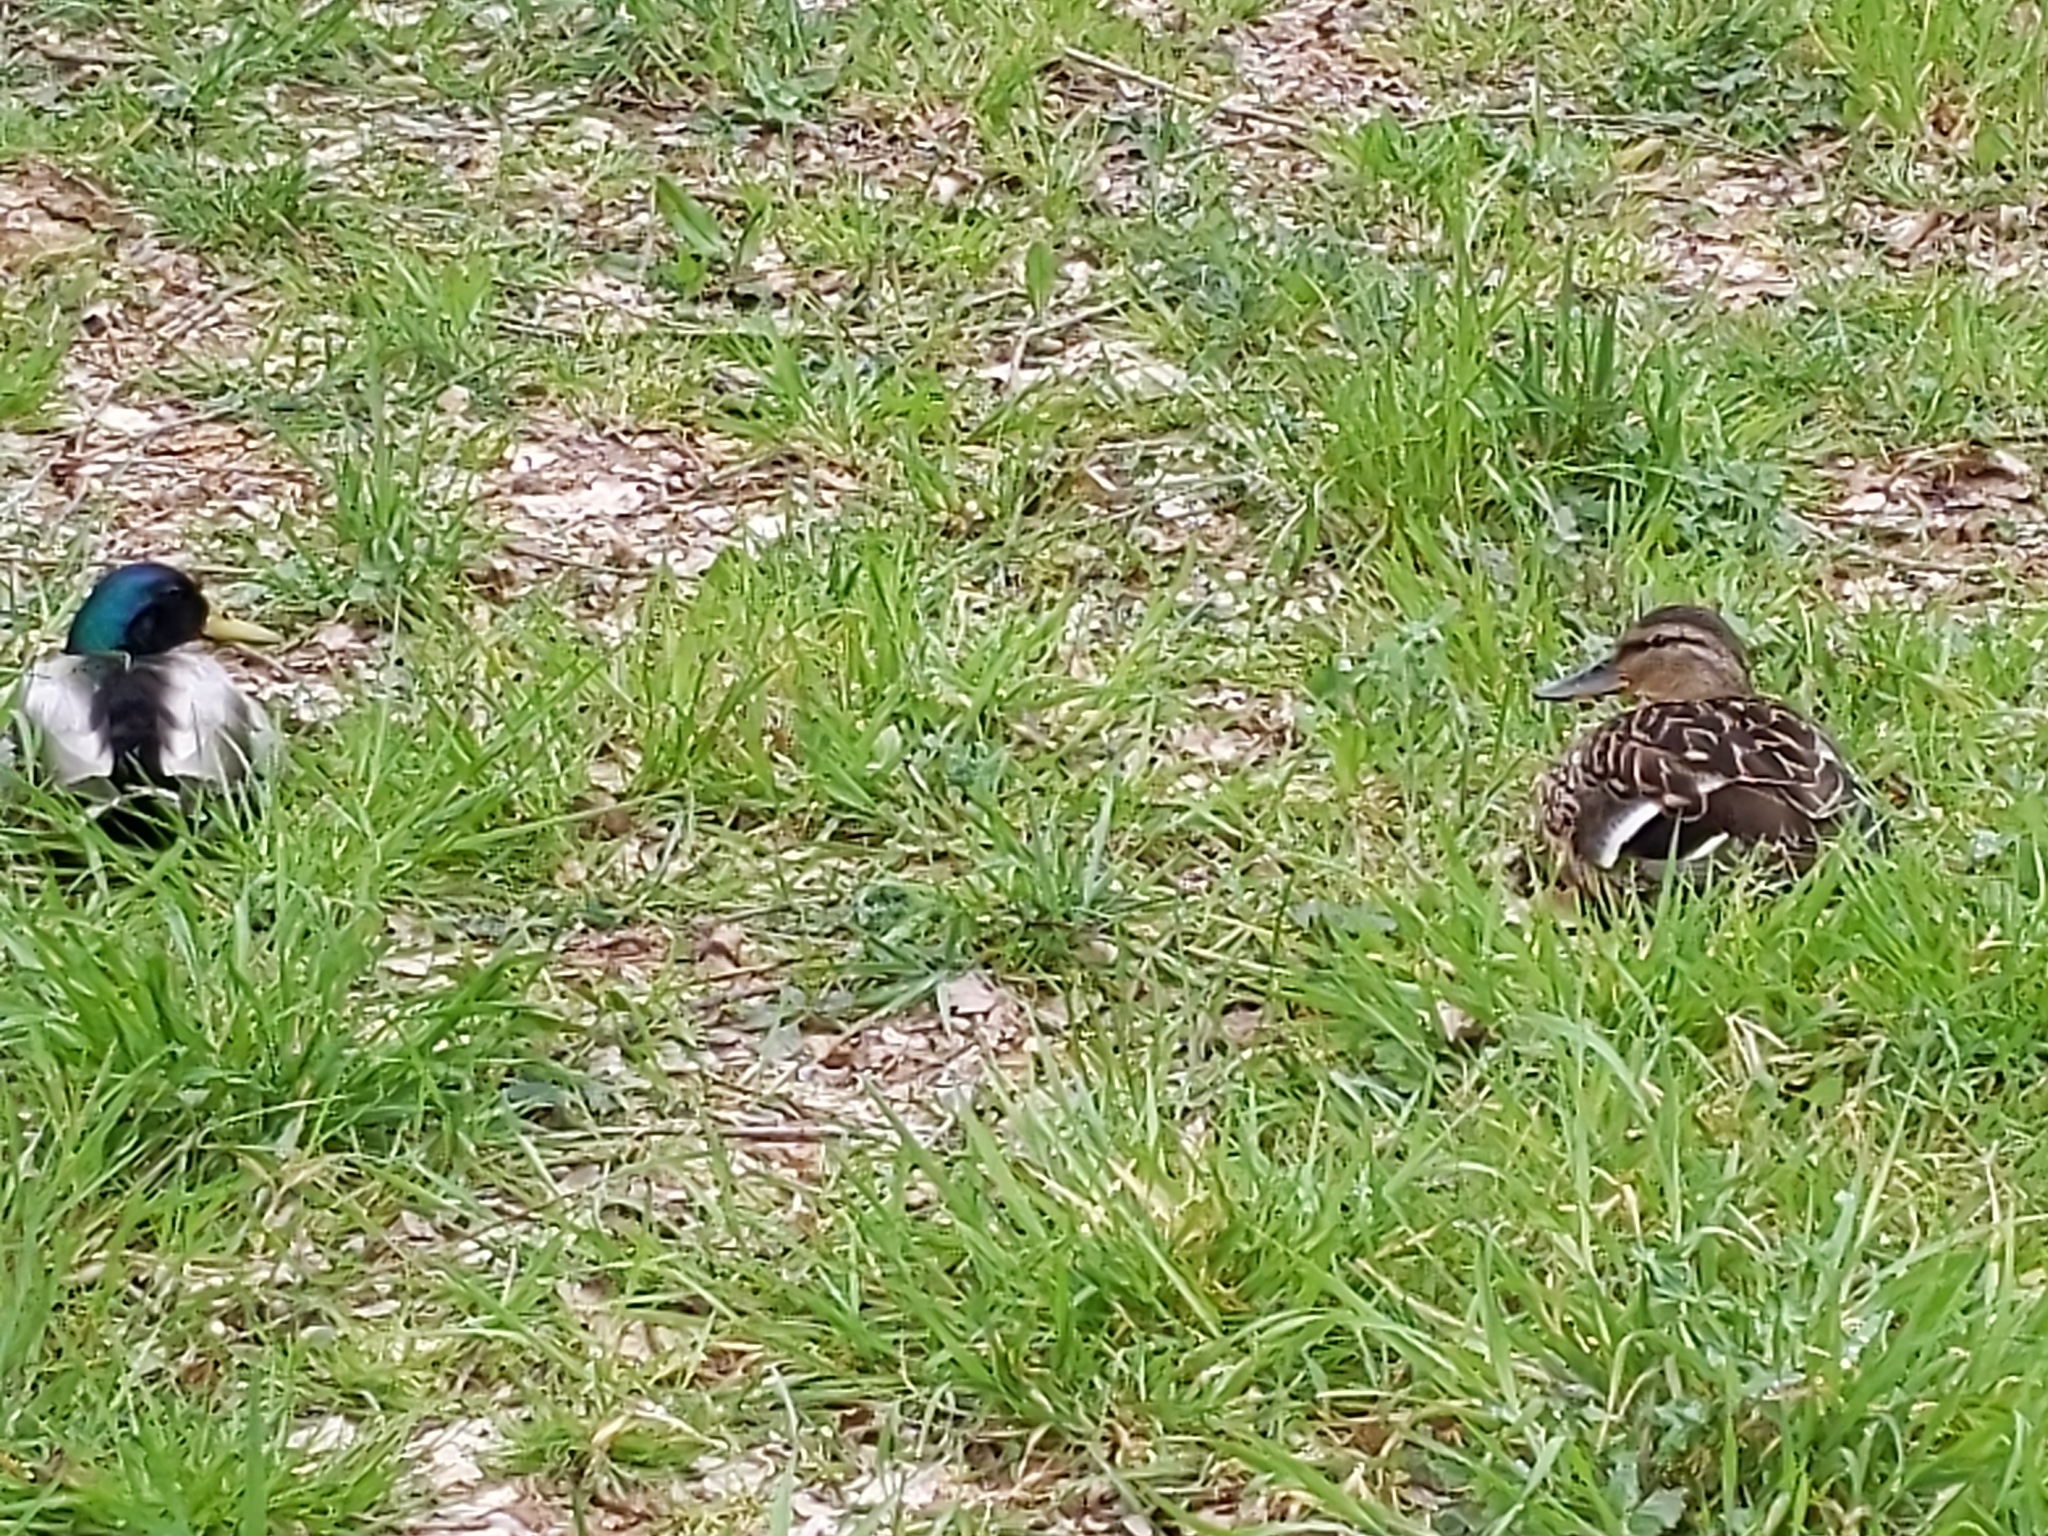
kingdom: Animalia
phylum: Chordata
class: Aves
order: Anseriformes
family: Anatidae
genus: Anas
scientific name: Anas platyrhynchos
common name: Mallard
